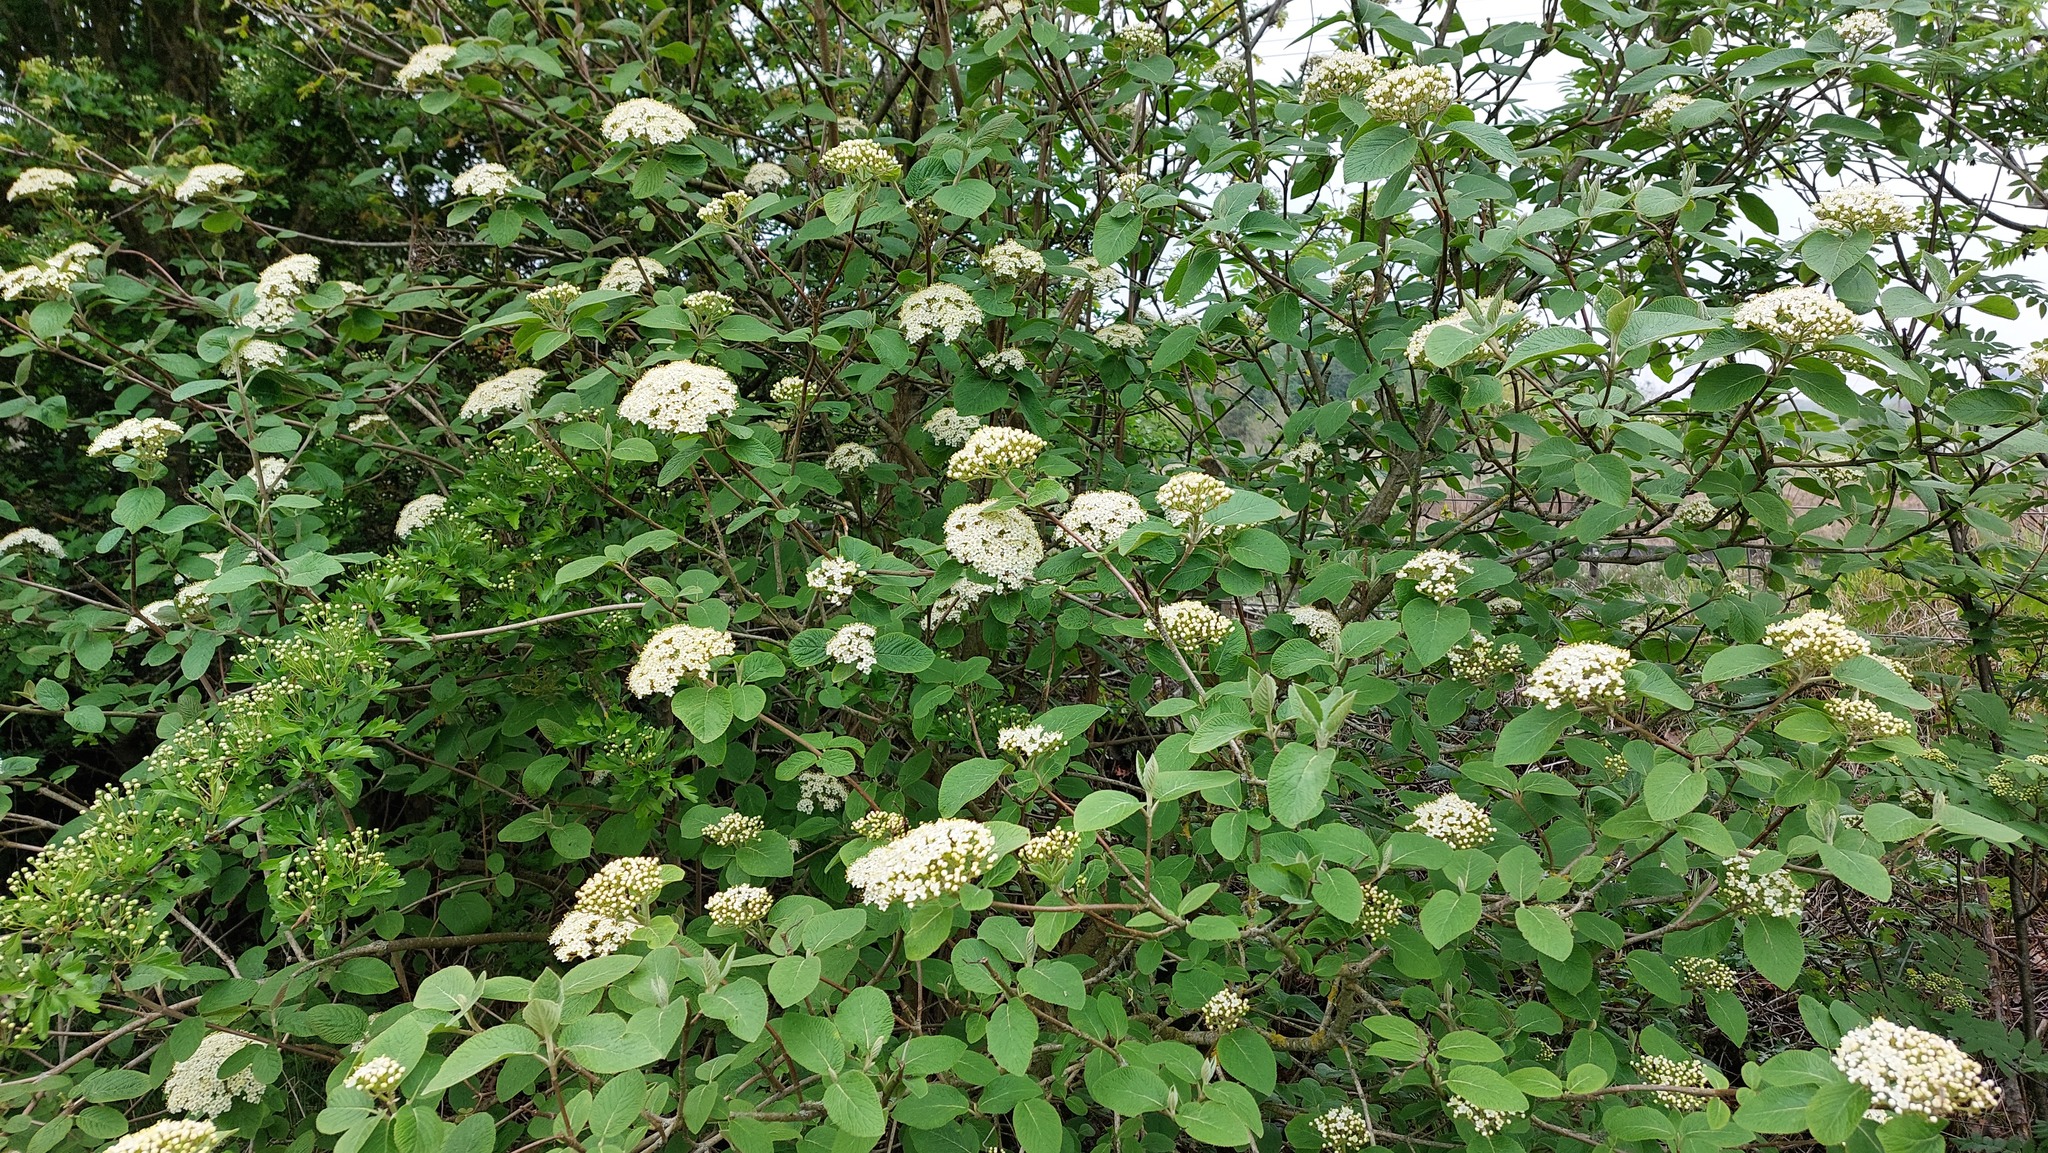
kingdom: Plantae
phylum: Tracheophyta
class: Magnoliopsida
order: Dipsacales
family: Viburnaceae
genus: Viburnum
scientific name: Viburnum lantana
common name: Wayfaring tree
